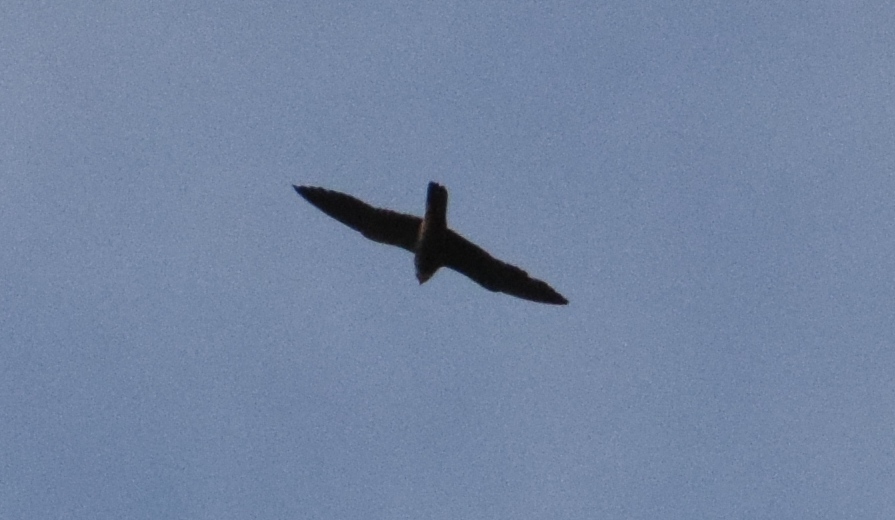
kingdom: Animalia
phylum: Chordata
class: Aves
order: Falconiformes
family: Falconidae
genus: Falco
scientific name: Falco subbuteo
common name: Eurasian hobby
